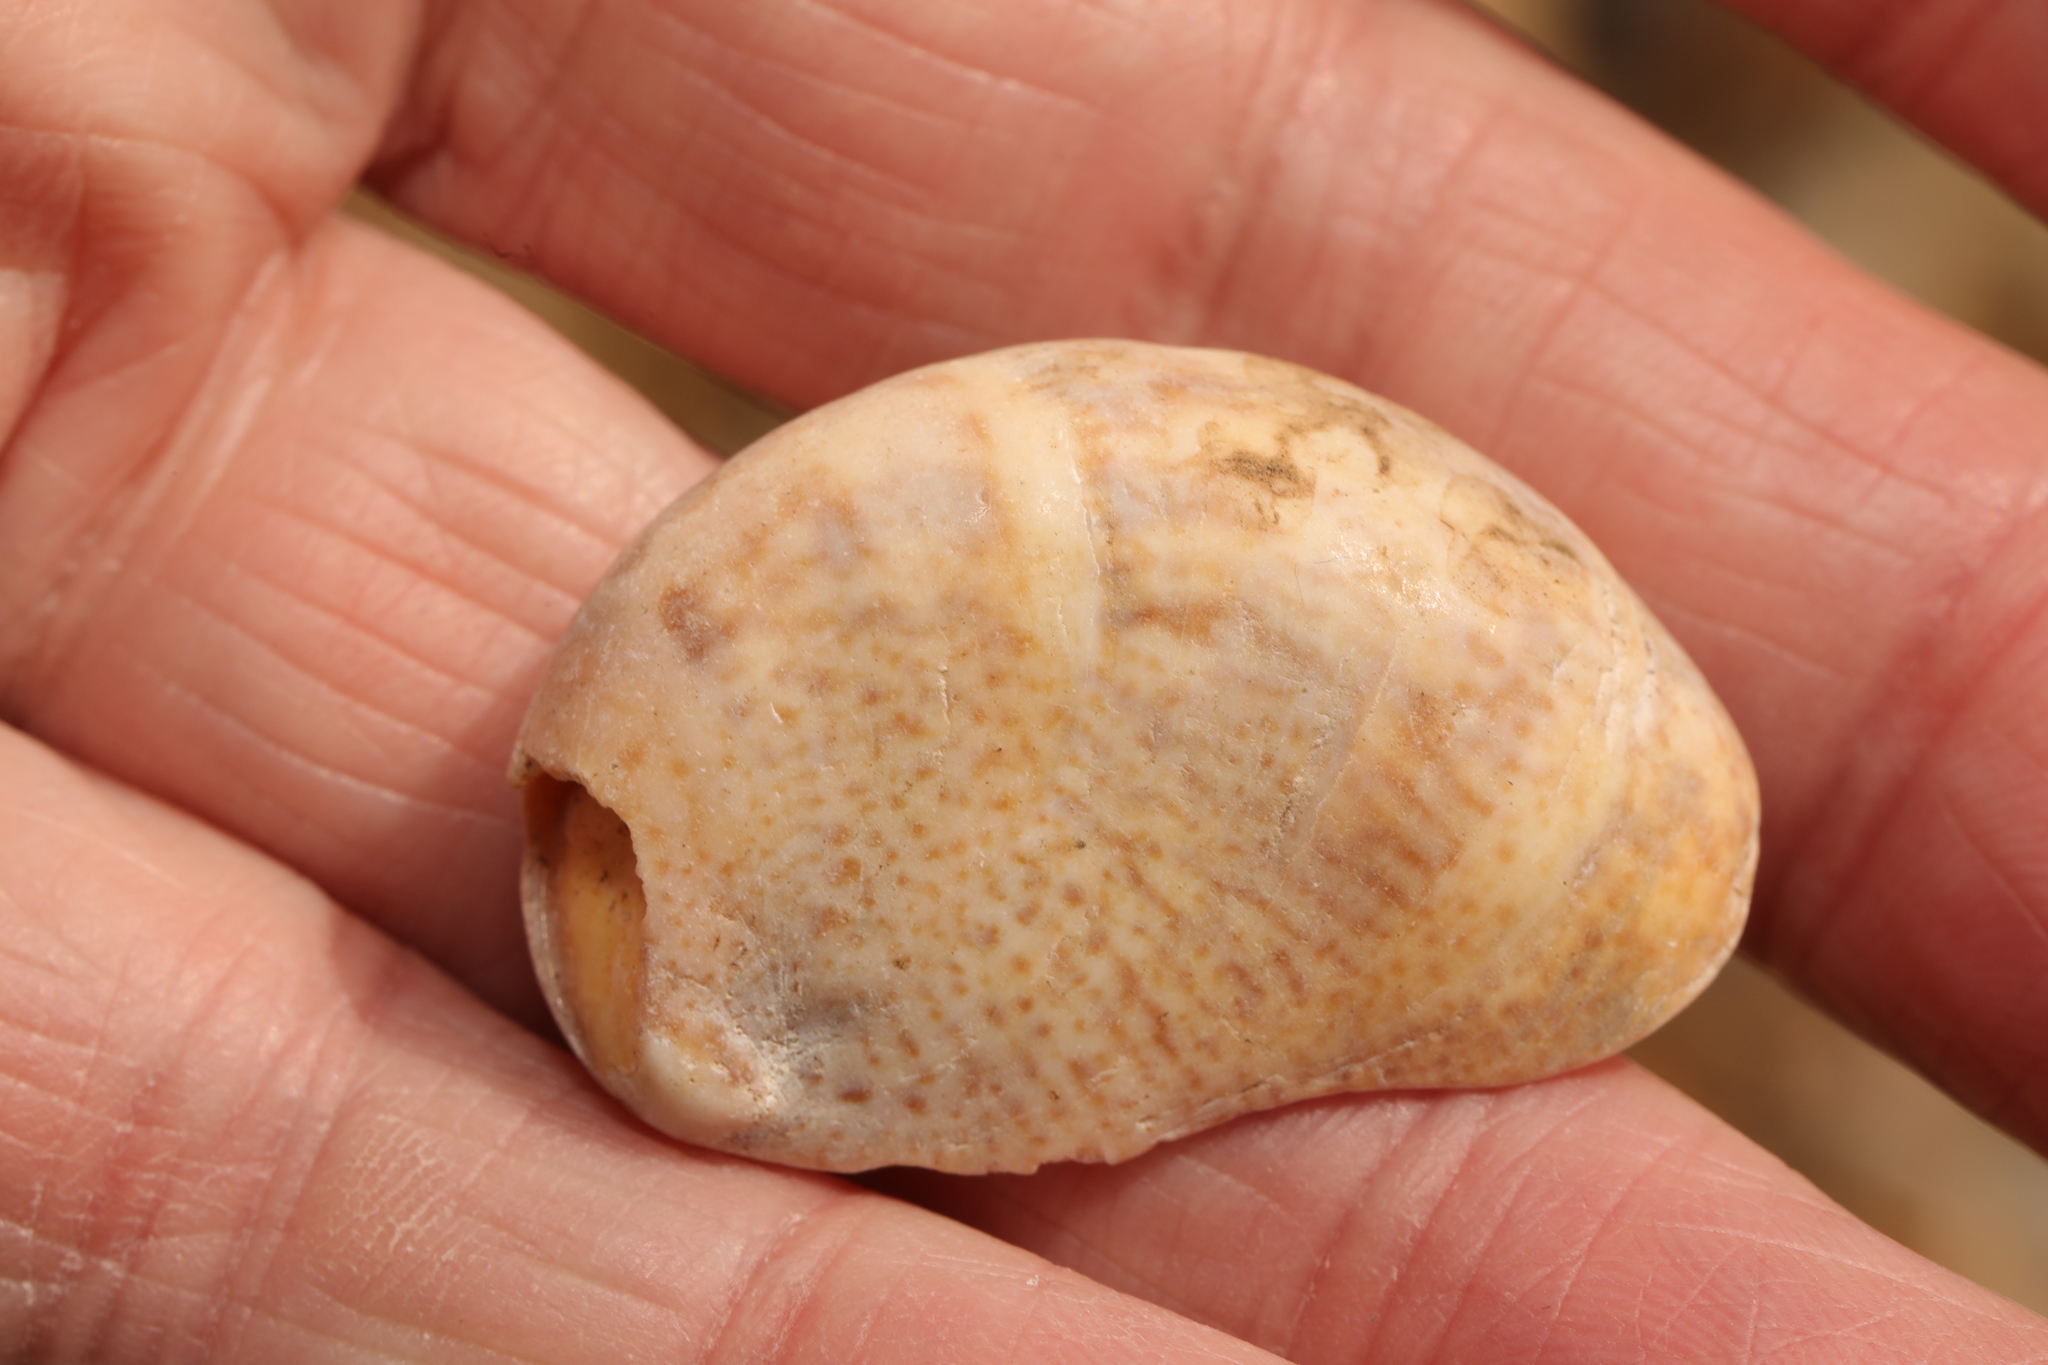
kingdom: Animalia
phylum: Mollusca
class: Gastropoda
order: Littorinimorpha
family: Calyptraeidae
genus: Crepidula
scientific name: Crepidula fornicata
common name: Slipper limpet
